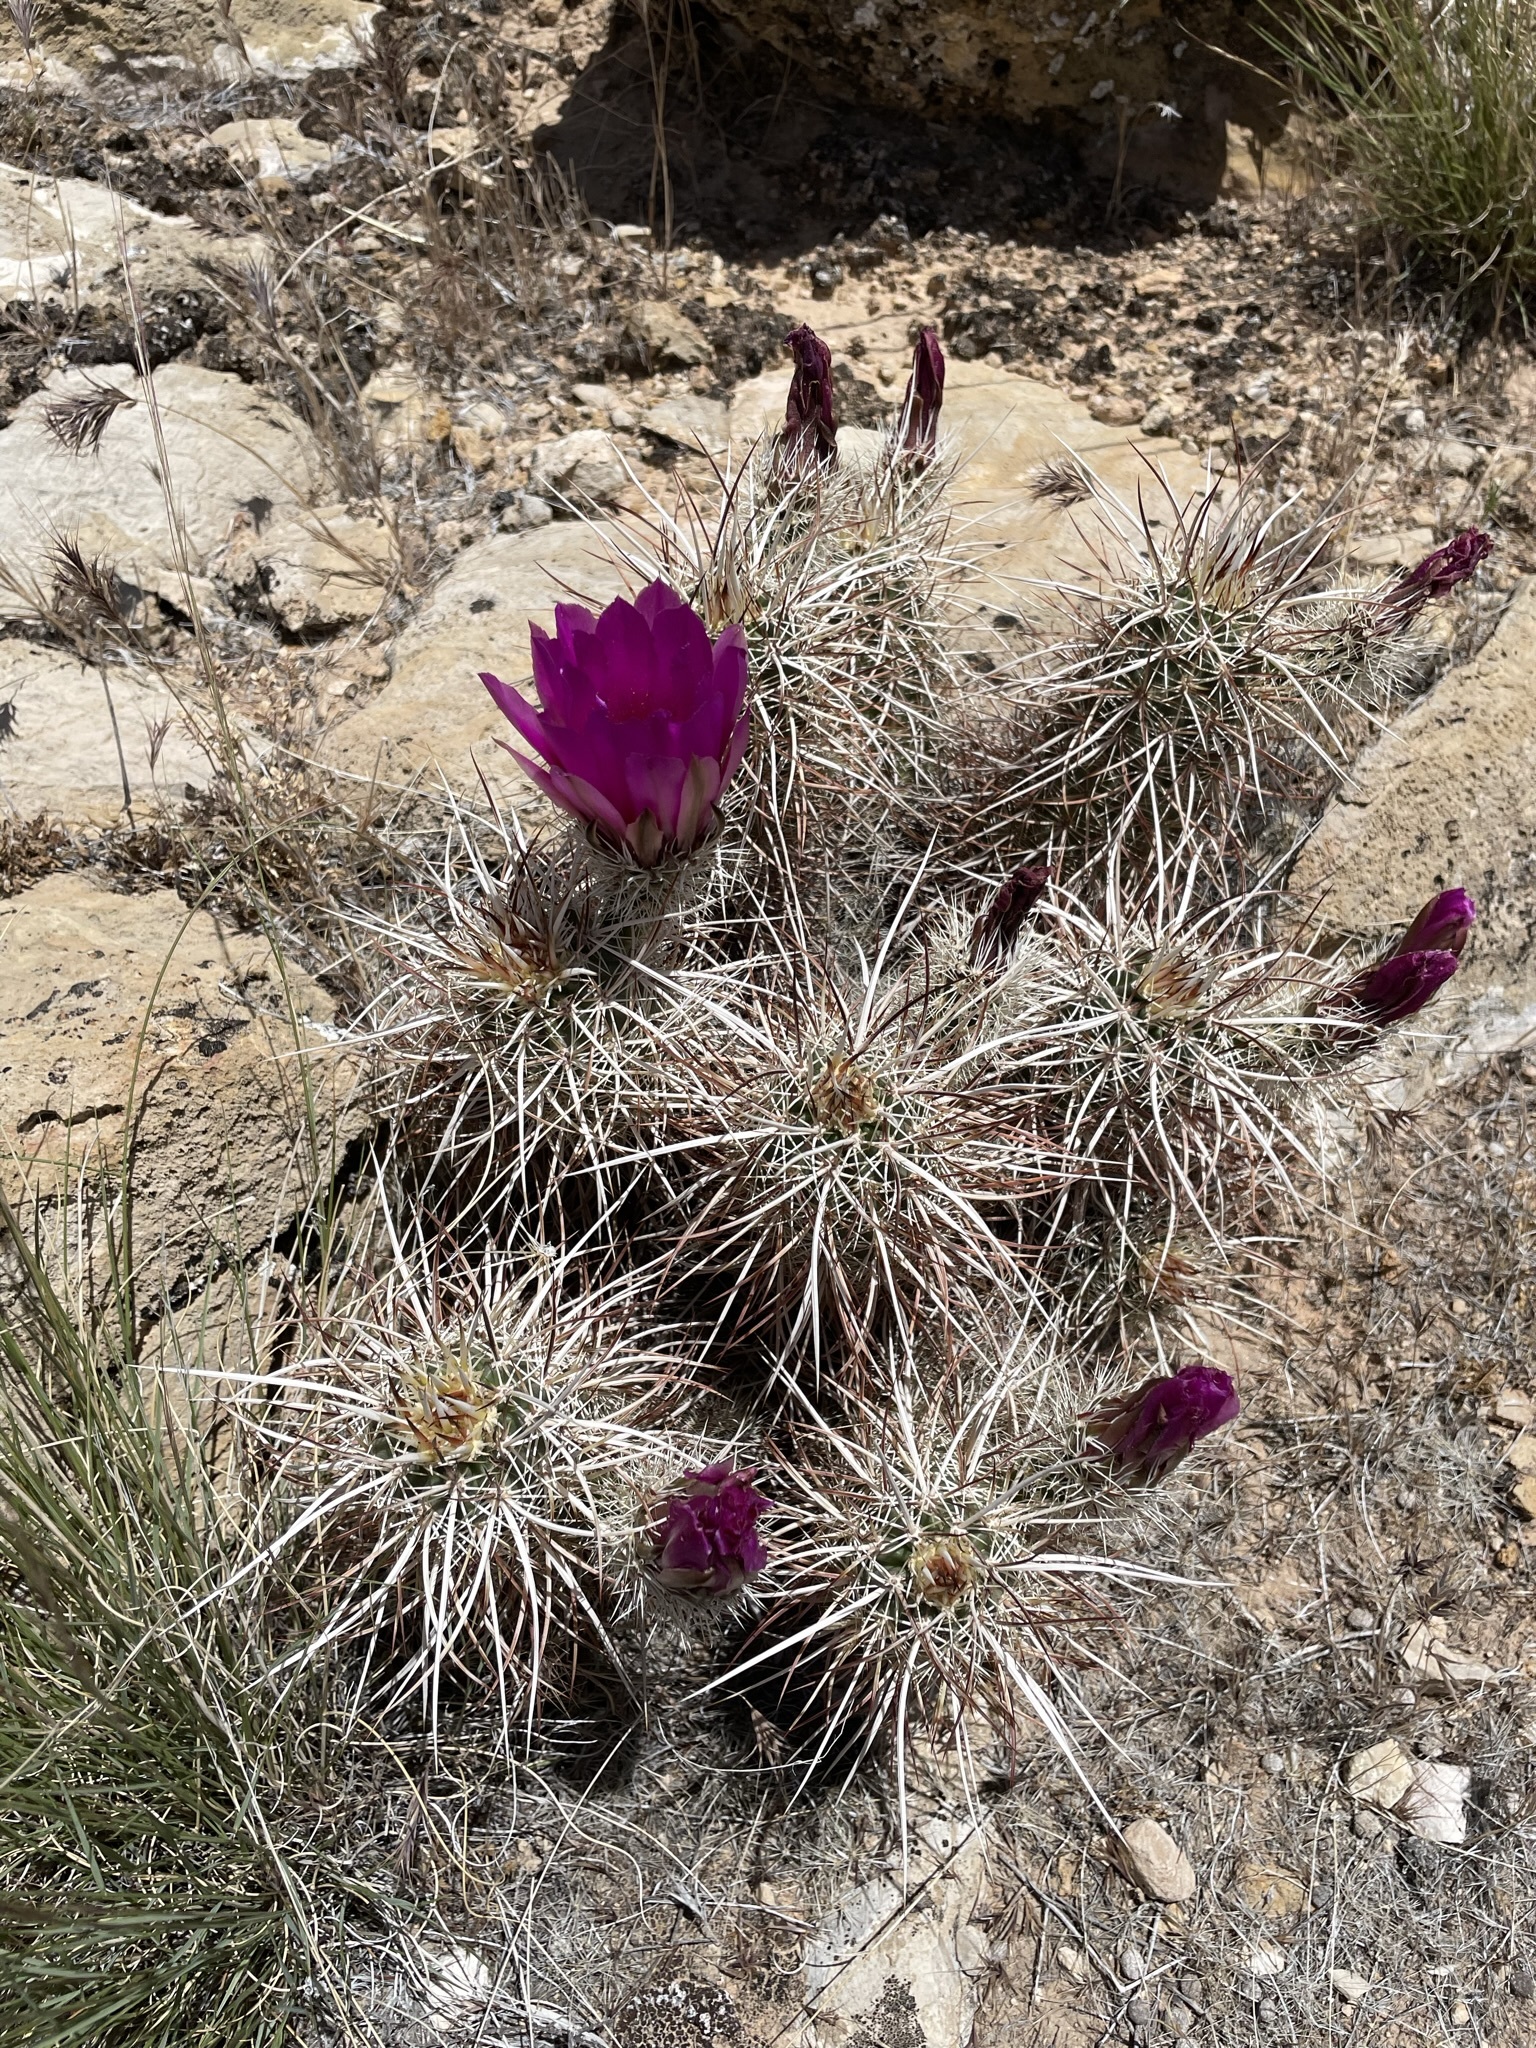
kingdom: Plantae
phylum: Tracheophyta
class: Magnoliopsida
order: Caryophyllales
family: Cactaceae
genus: Echinocereus
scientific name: Echinocereus engelmannii
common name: Engelmann's hedgehog cactus
